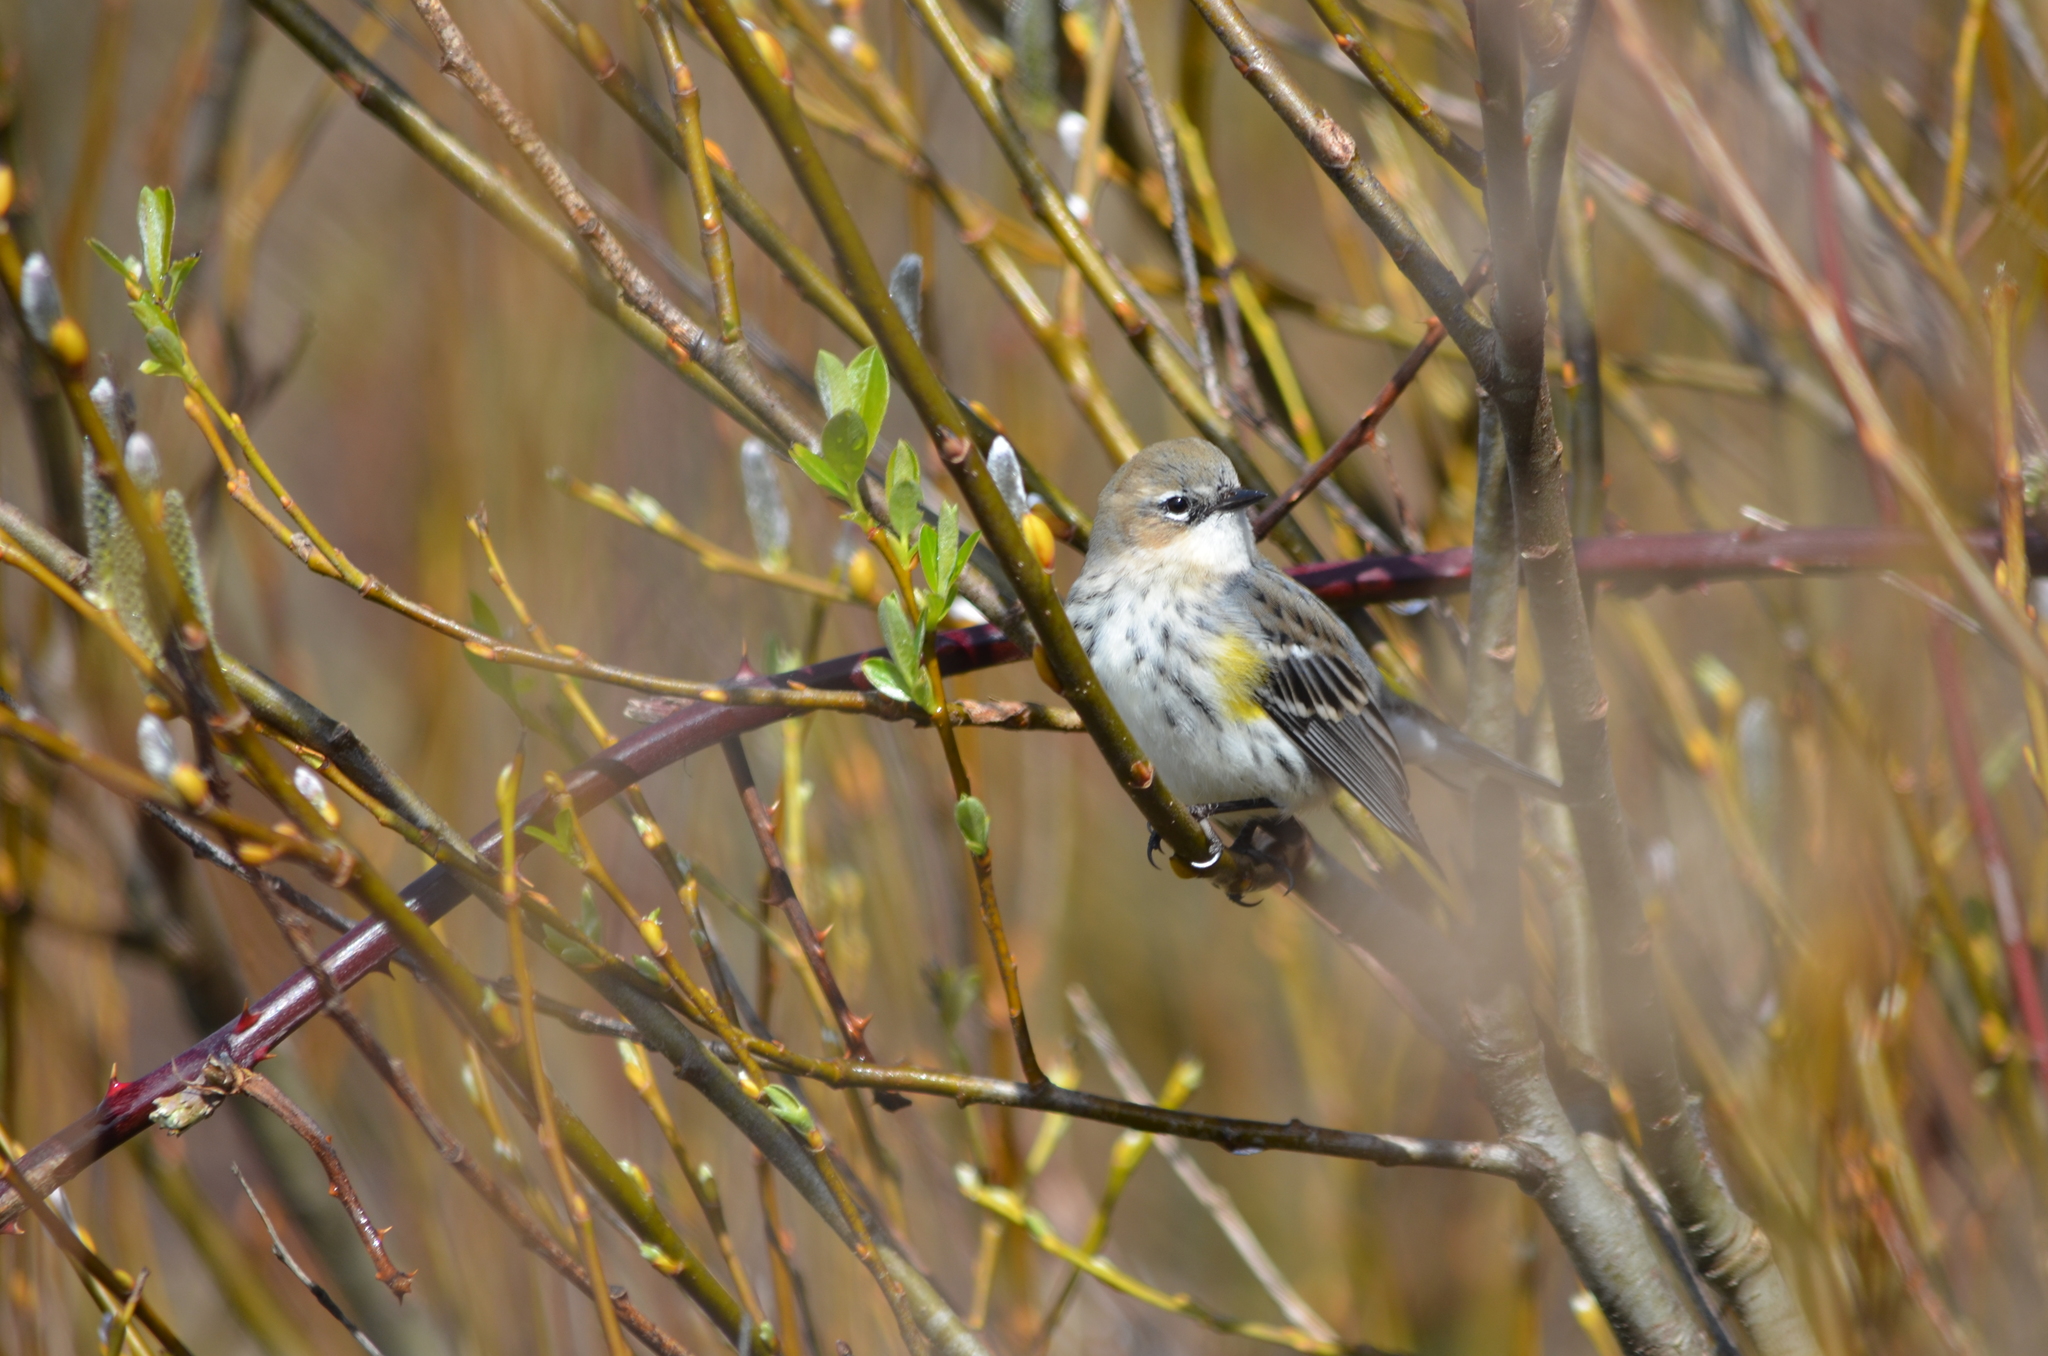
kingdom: Animalia
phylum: Chordata
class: Aves
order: Passeriformes
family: Parulidae
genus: Setophaga
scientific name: Setophaga coronata
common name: Myrtle warbler
